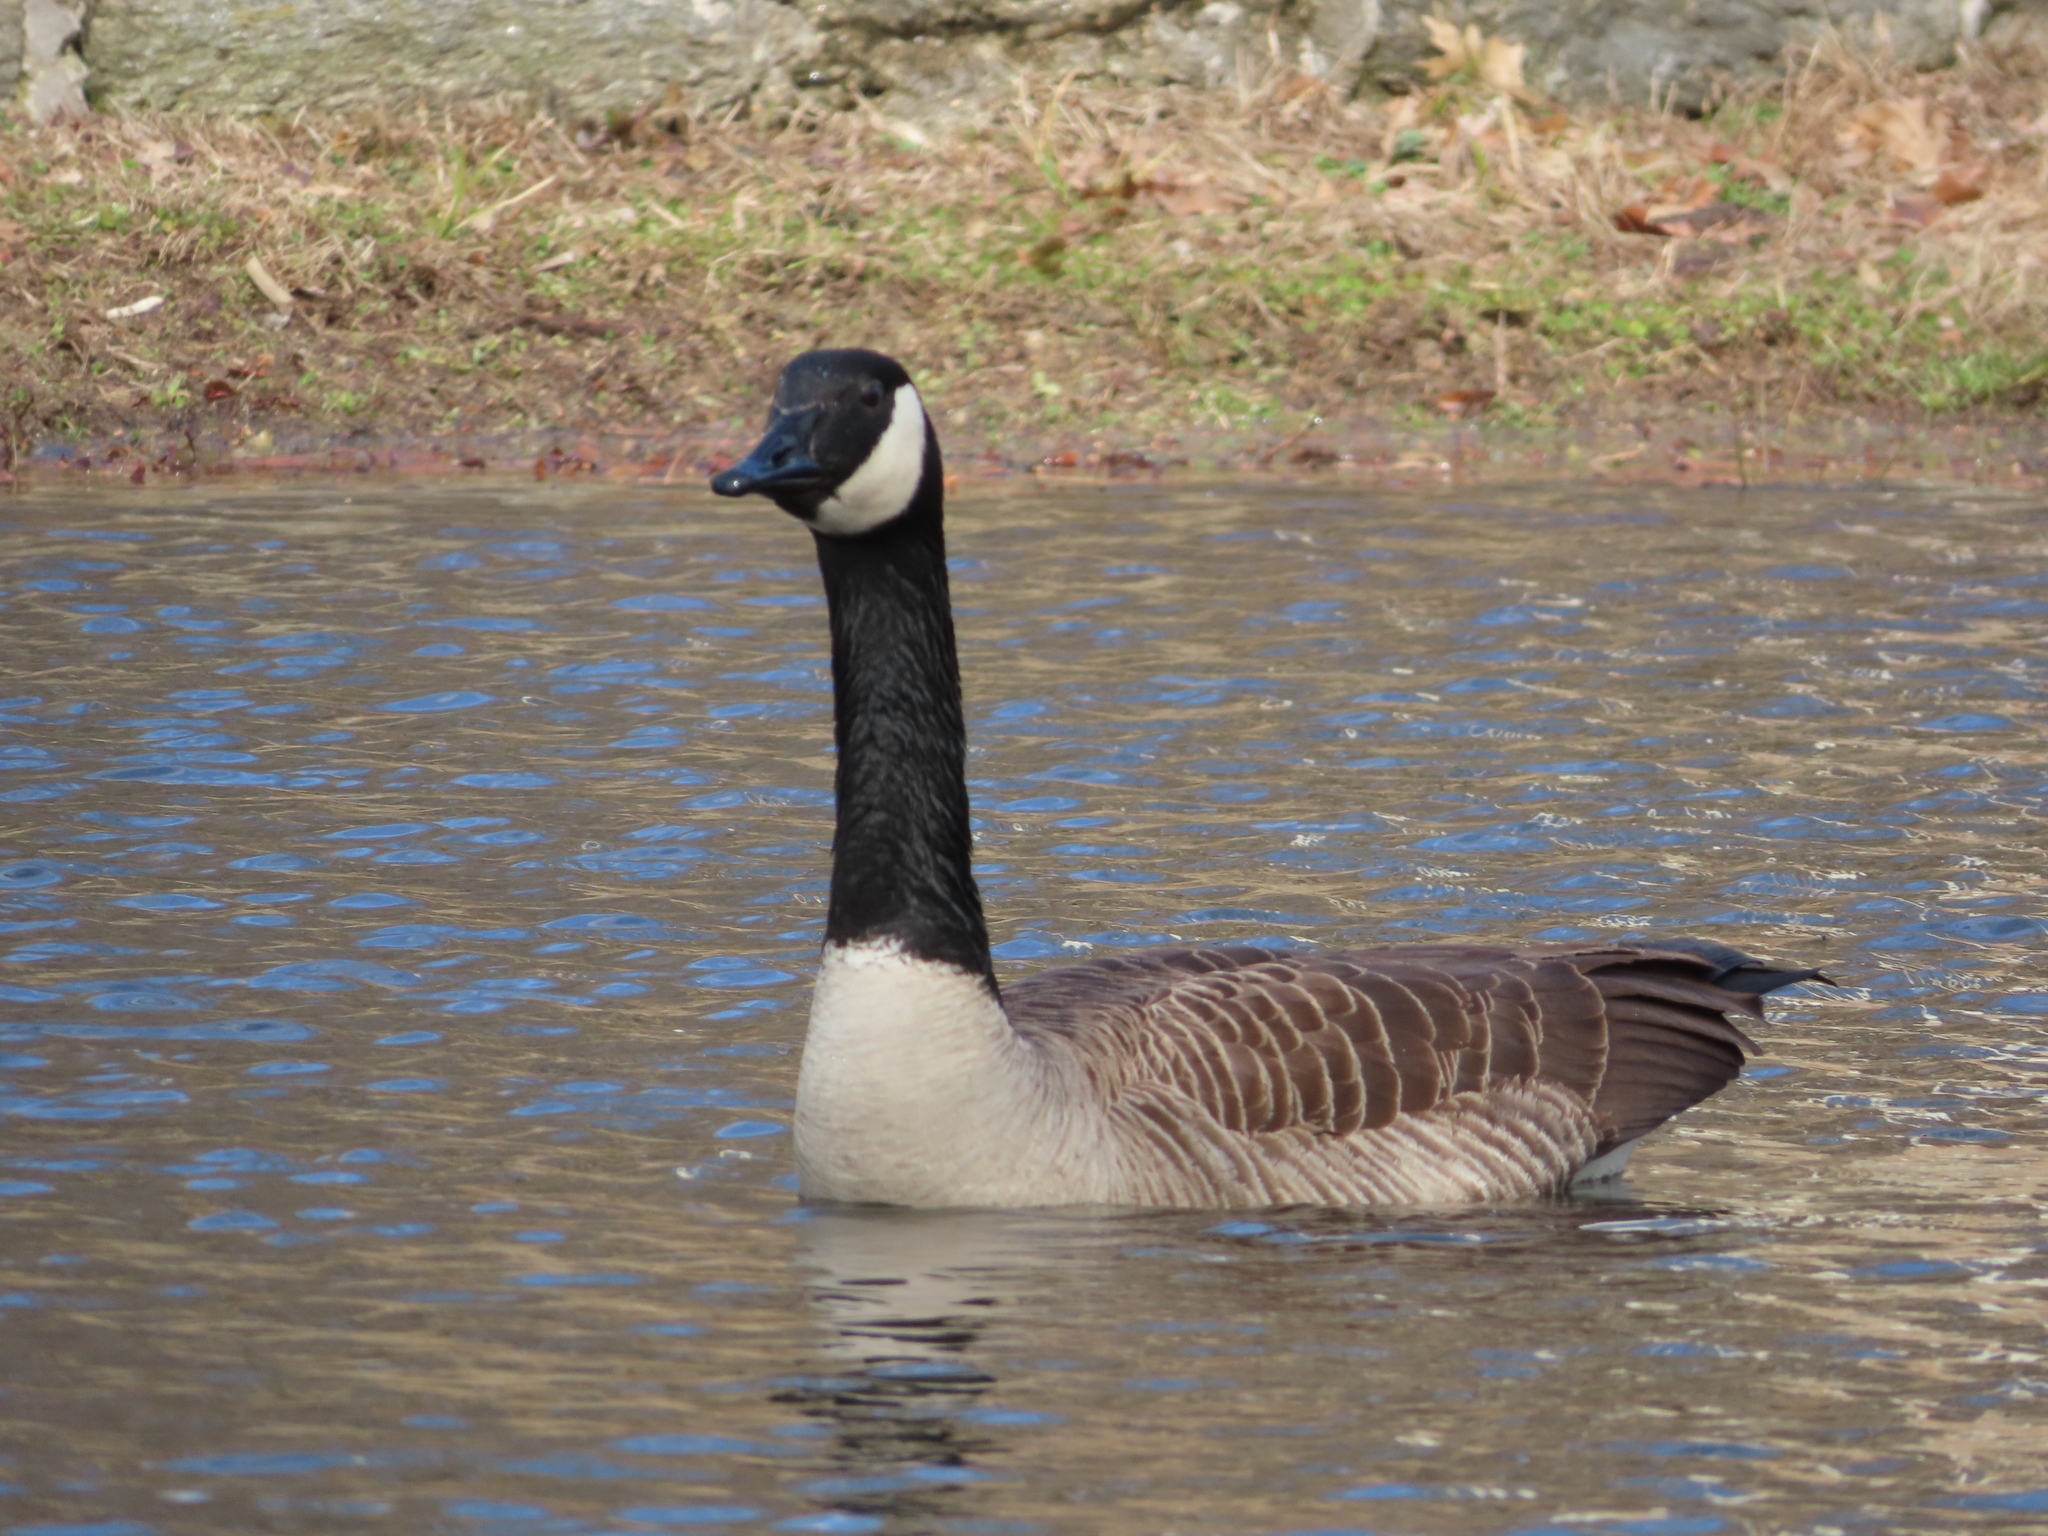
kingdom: Animalia
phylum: Chordata
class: Aves
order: Anseriformes
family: Anatidae
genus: Branta
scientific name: Branta canadensis
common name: Canada goose
